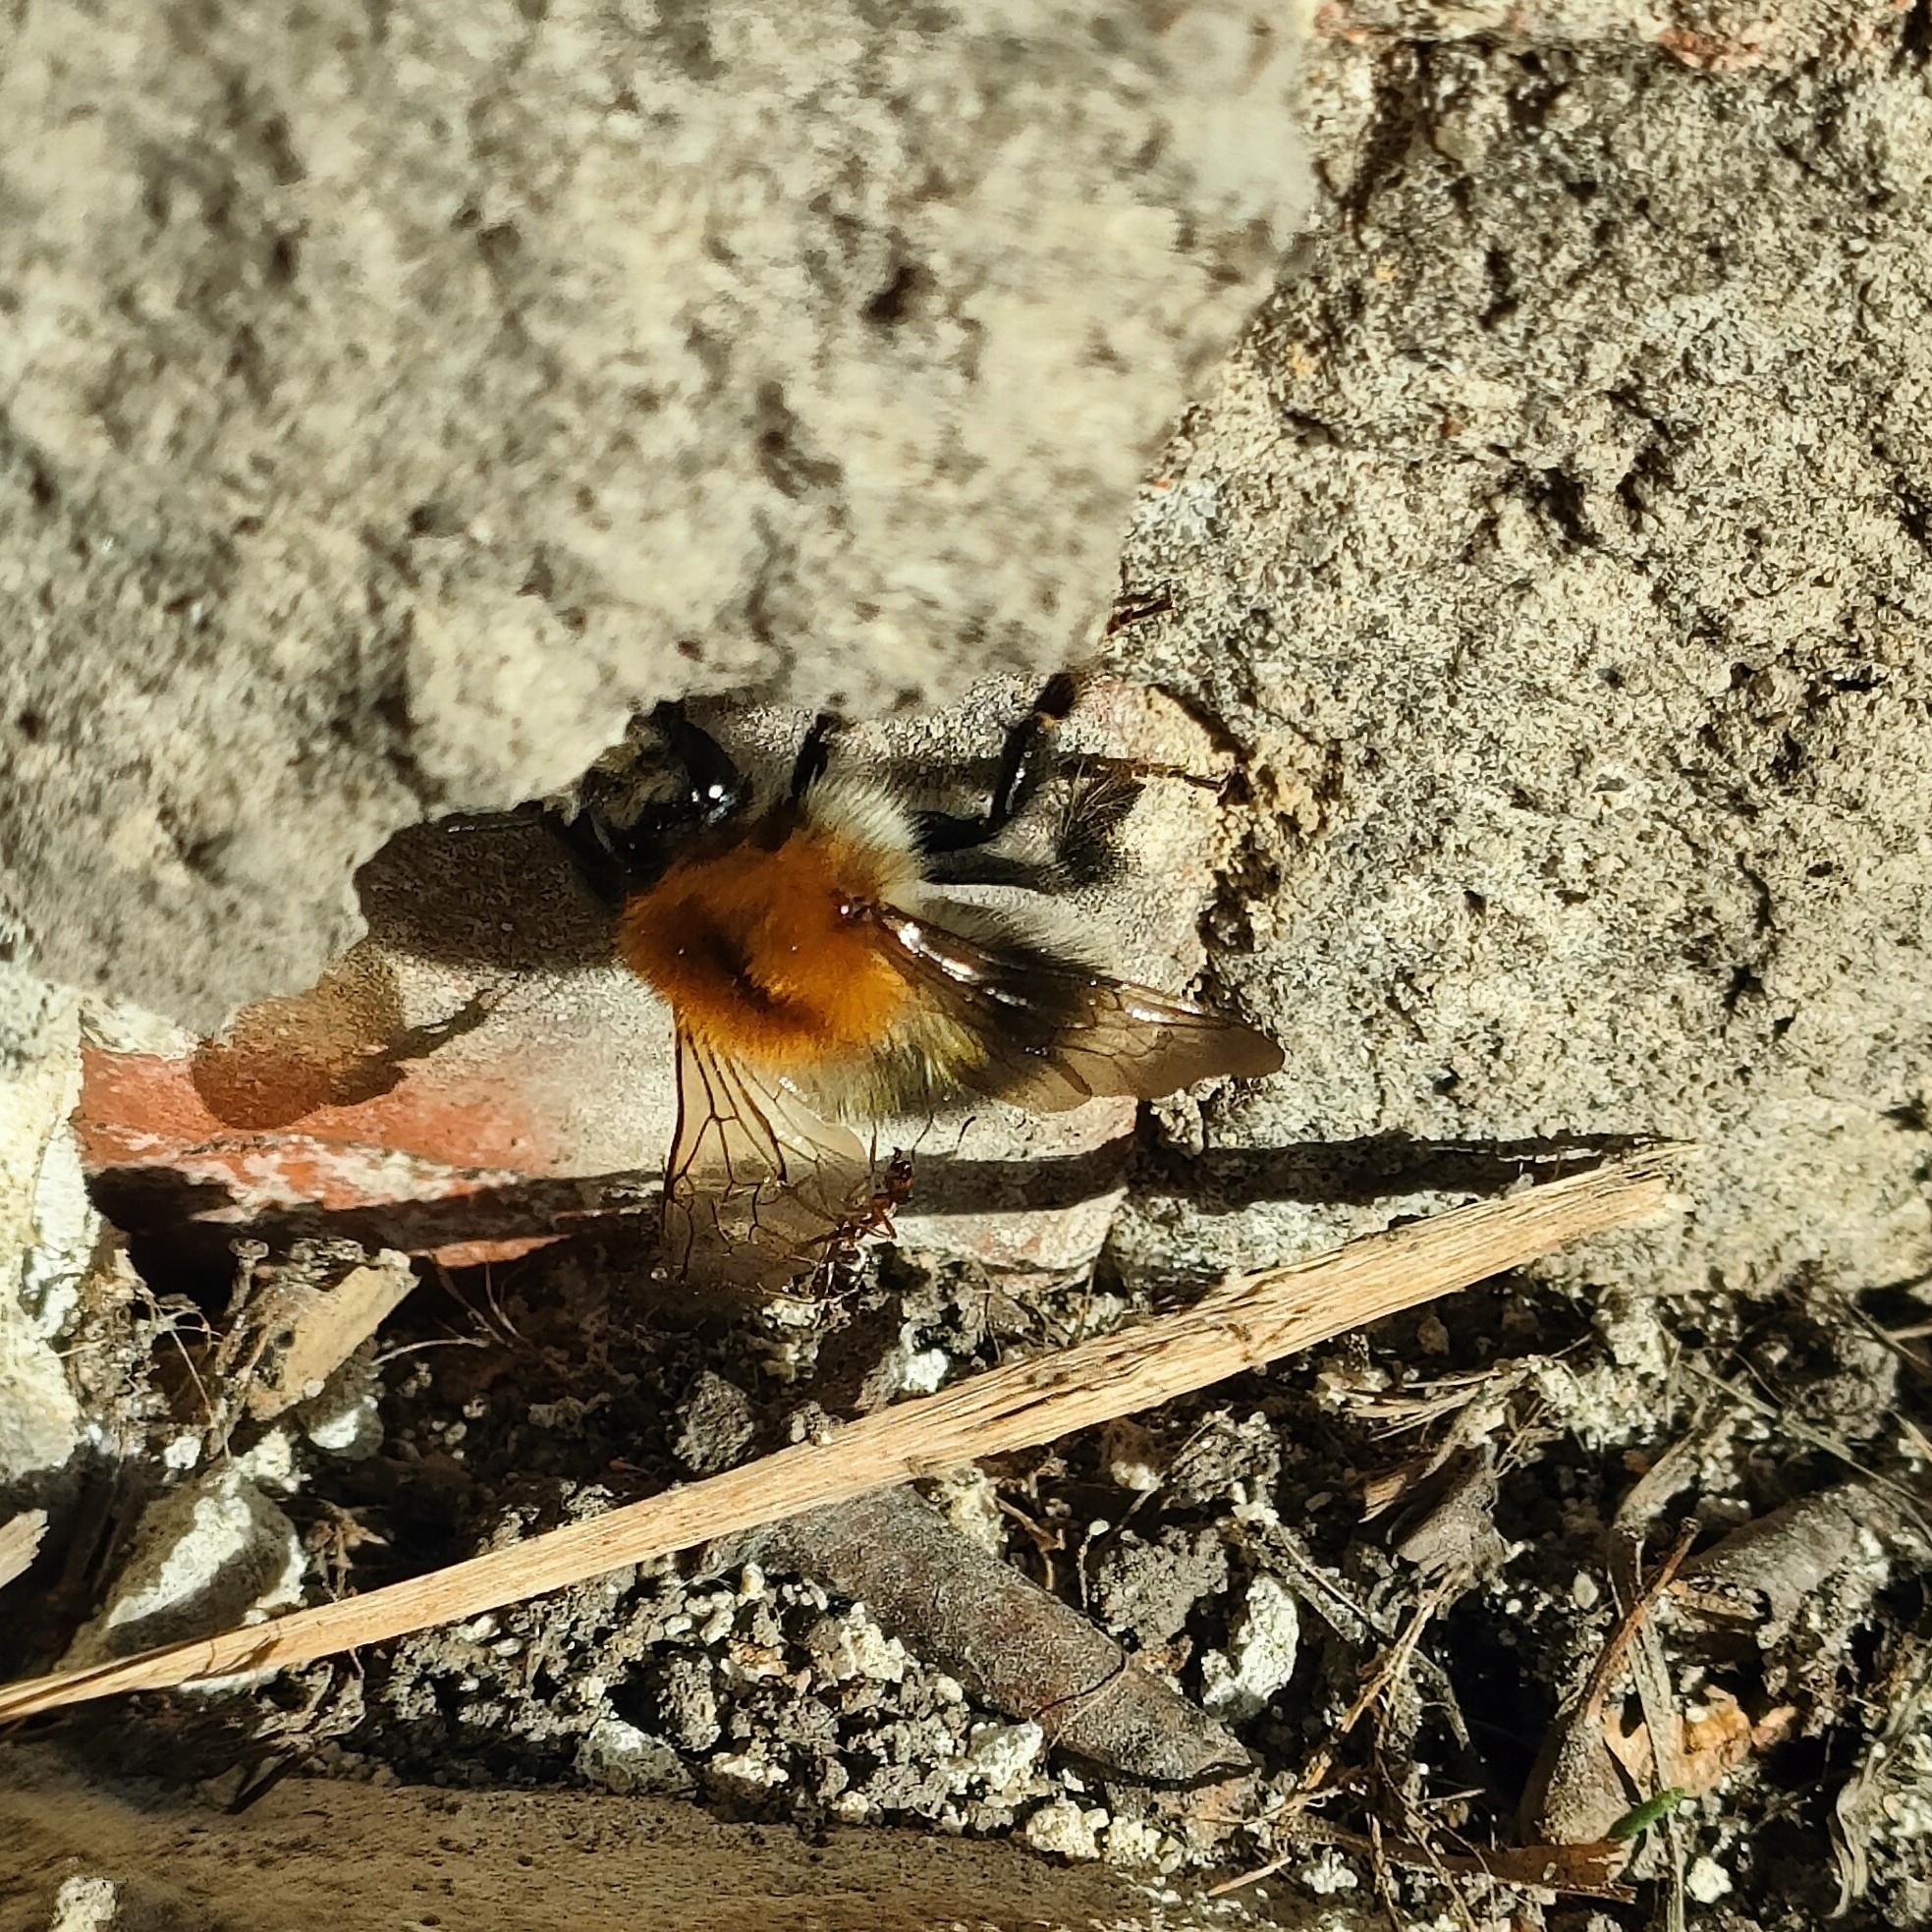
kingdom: Animalia
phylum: Arthropoda
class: Insecta
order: Hymenoptera
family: Apidae
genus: Bombus
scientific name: Bombus pascuorum
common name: Common carder bee
